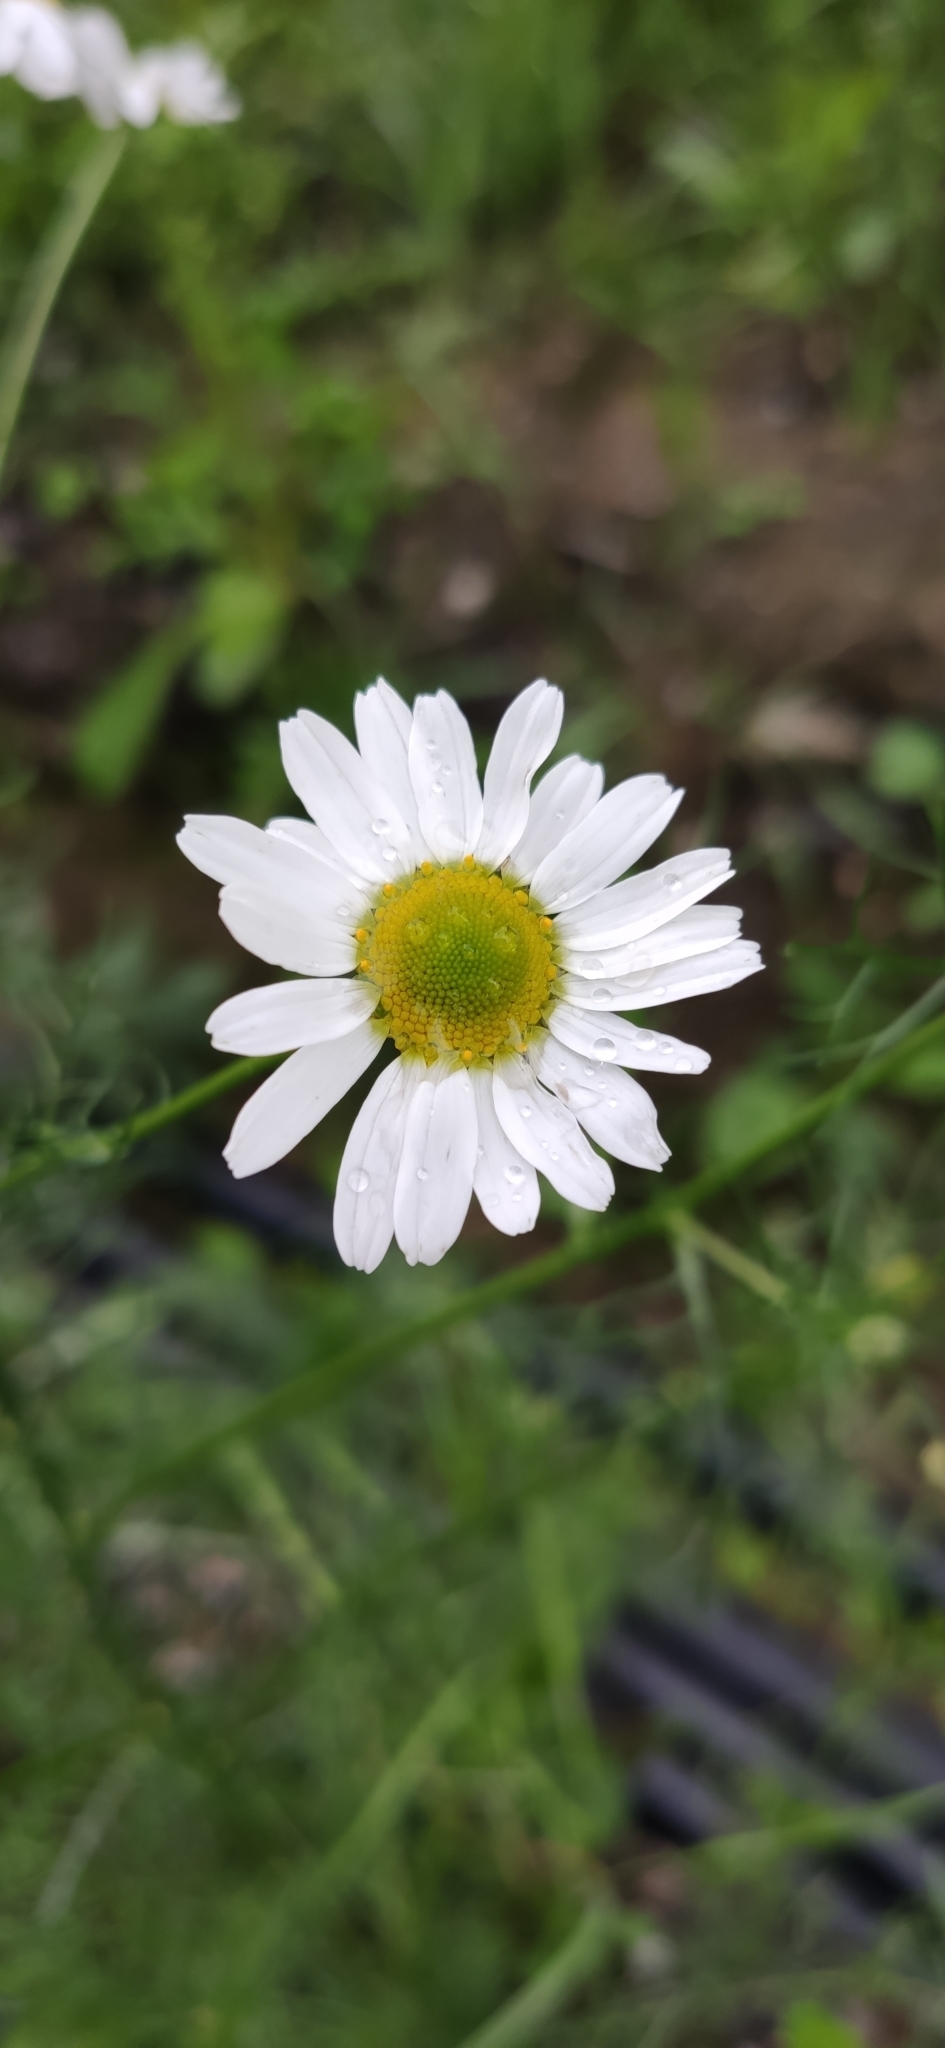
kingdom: Plantae
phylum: Tracheophyta
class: Magnoliopsida
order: Asterales
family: Asteraceae
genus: Tripleurospermum
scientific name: Tripleurospermum inodorum
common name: Scentless mayweed
